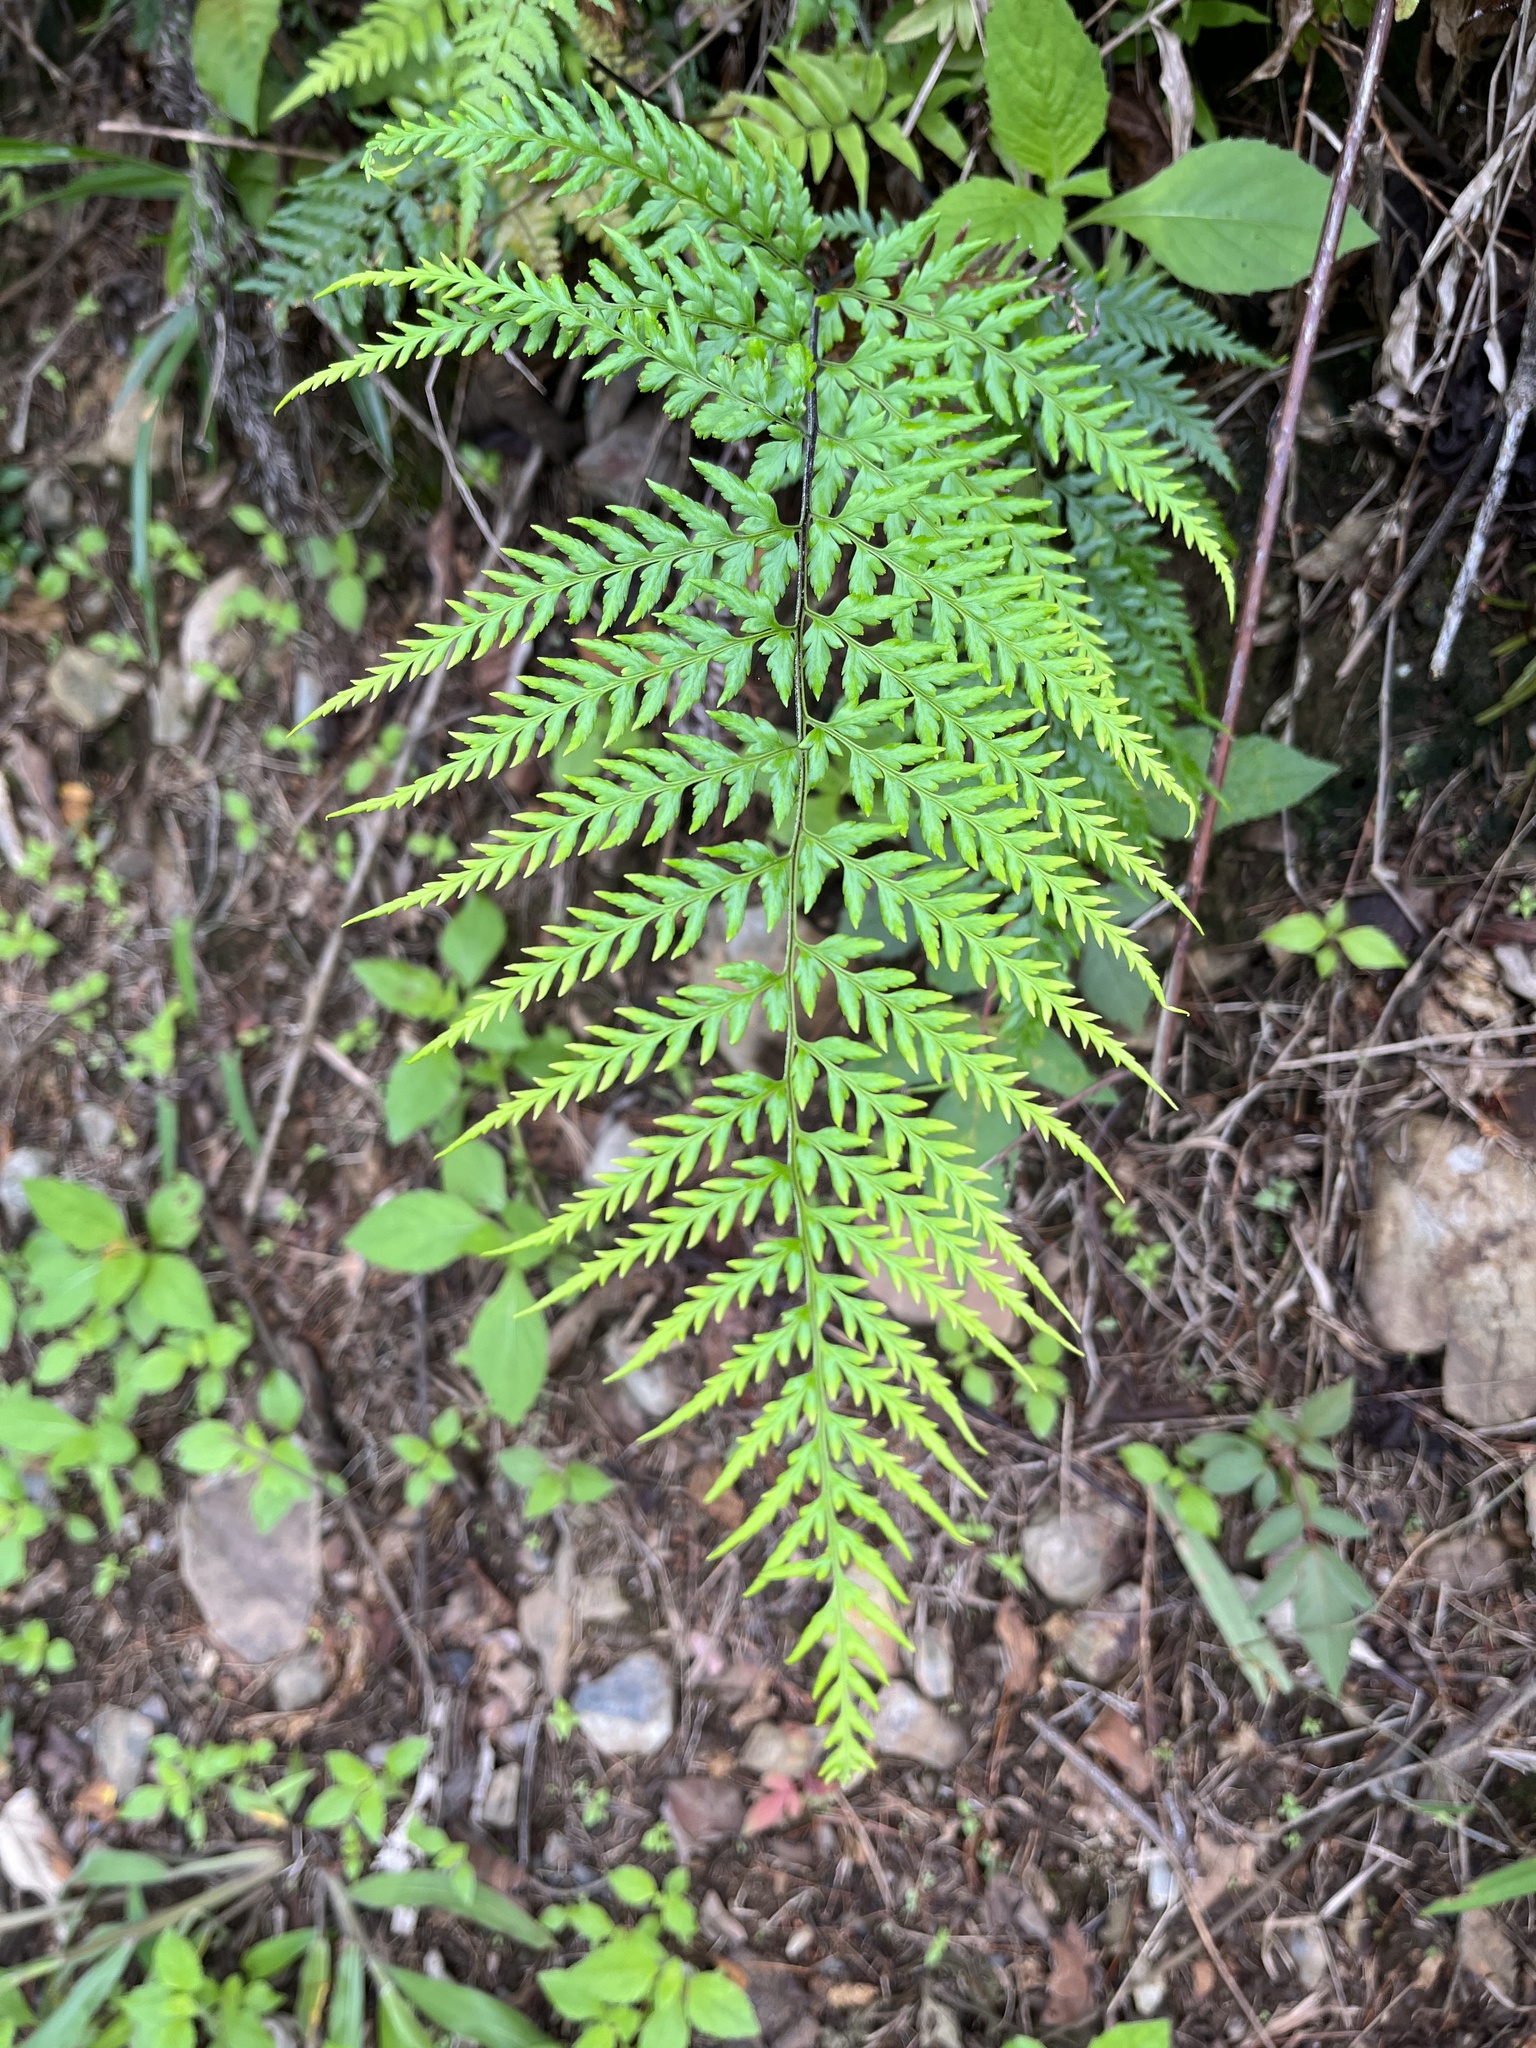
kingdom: Plantae
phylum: Tracheophyta
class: Polypodiopsida
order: Polypodiales
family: Pteridaceae
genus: Pityrogramma
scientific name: Pityrogramma calomelanos
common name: Dixie silverback fern
